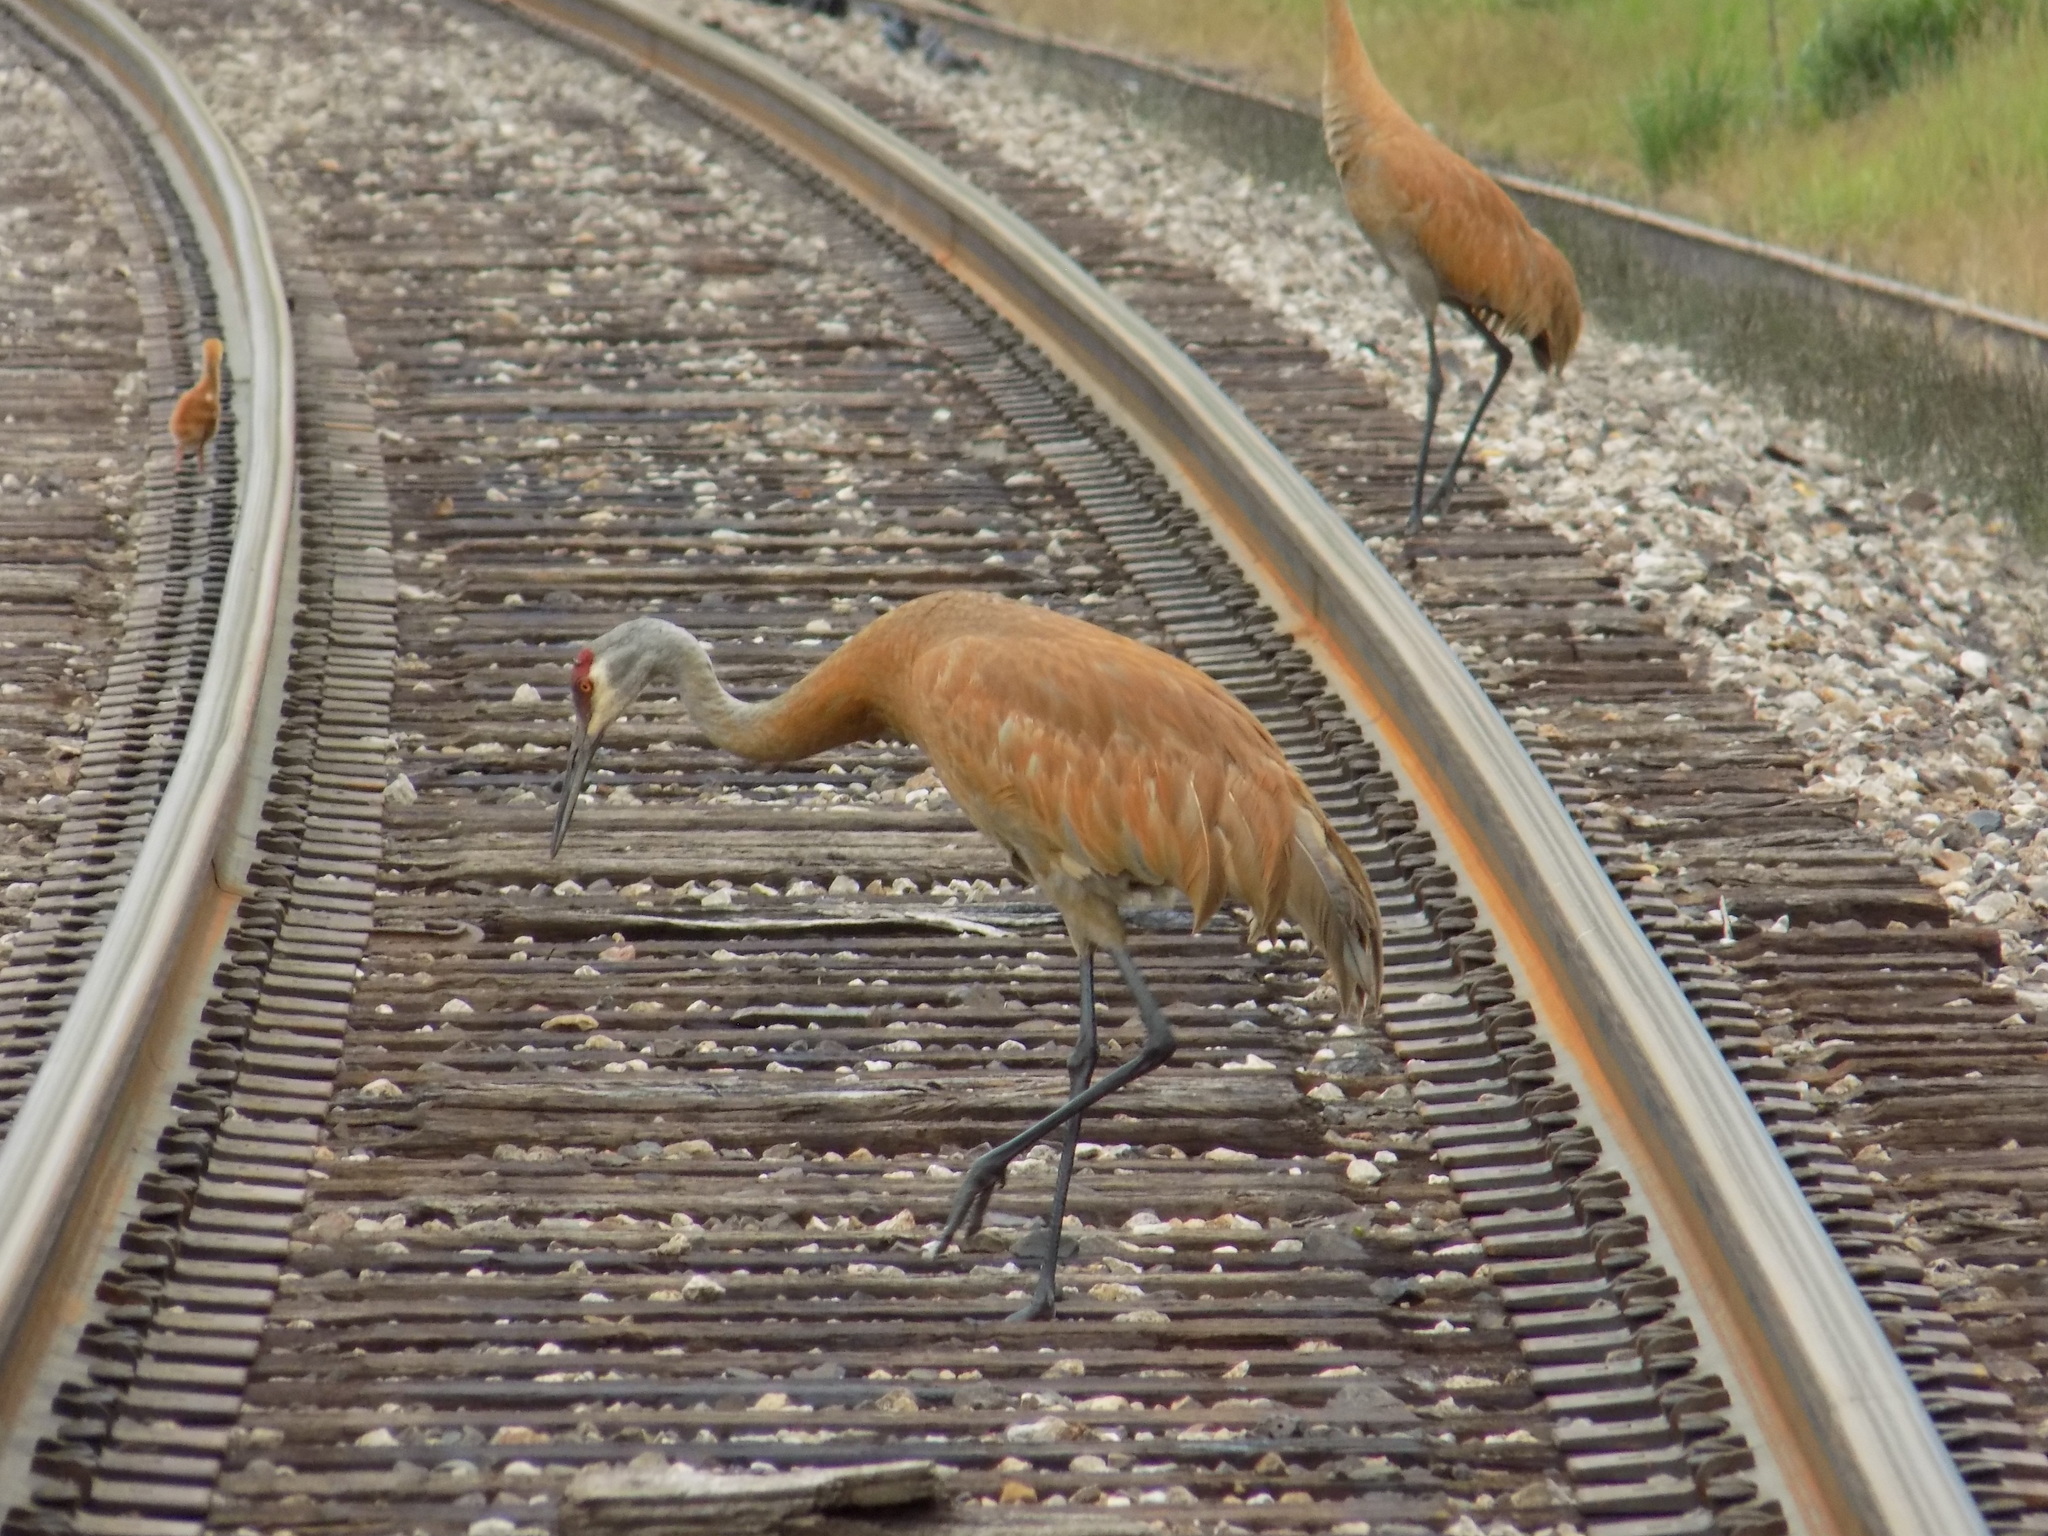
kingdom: Animalia
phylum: Chordata
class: Aves
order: Gruiformes
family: Gruidae
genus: Grus
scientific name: Grus canadensis
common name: Sandhill crane
